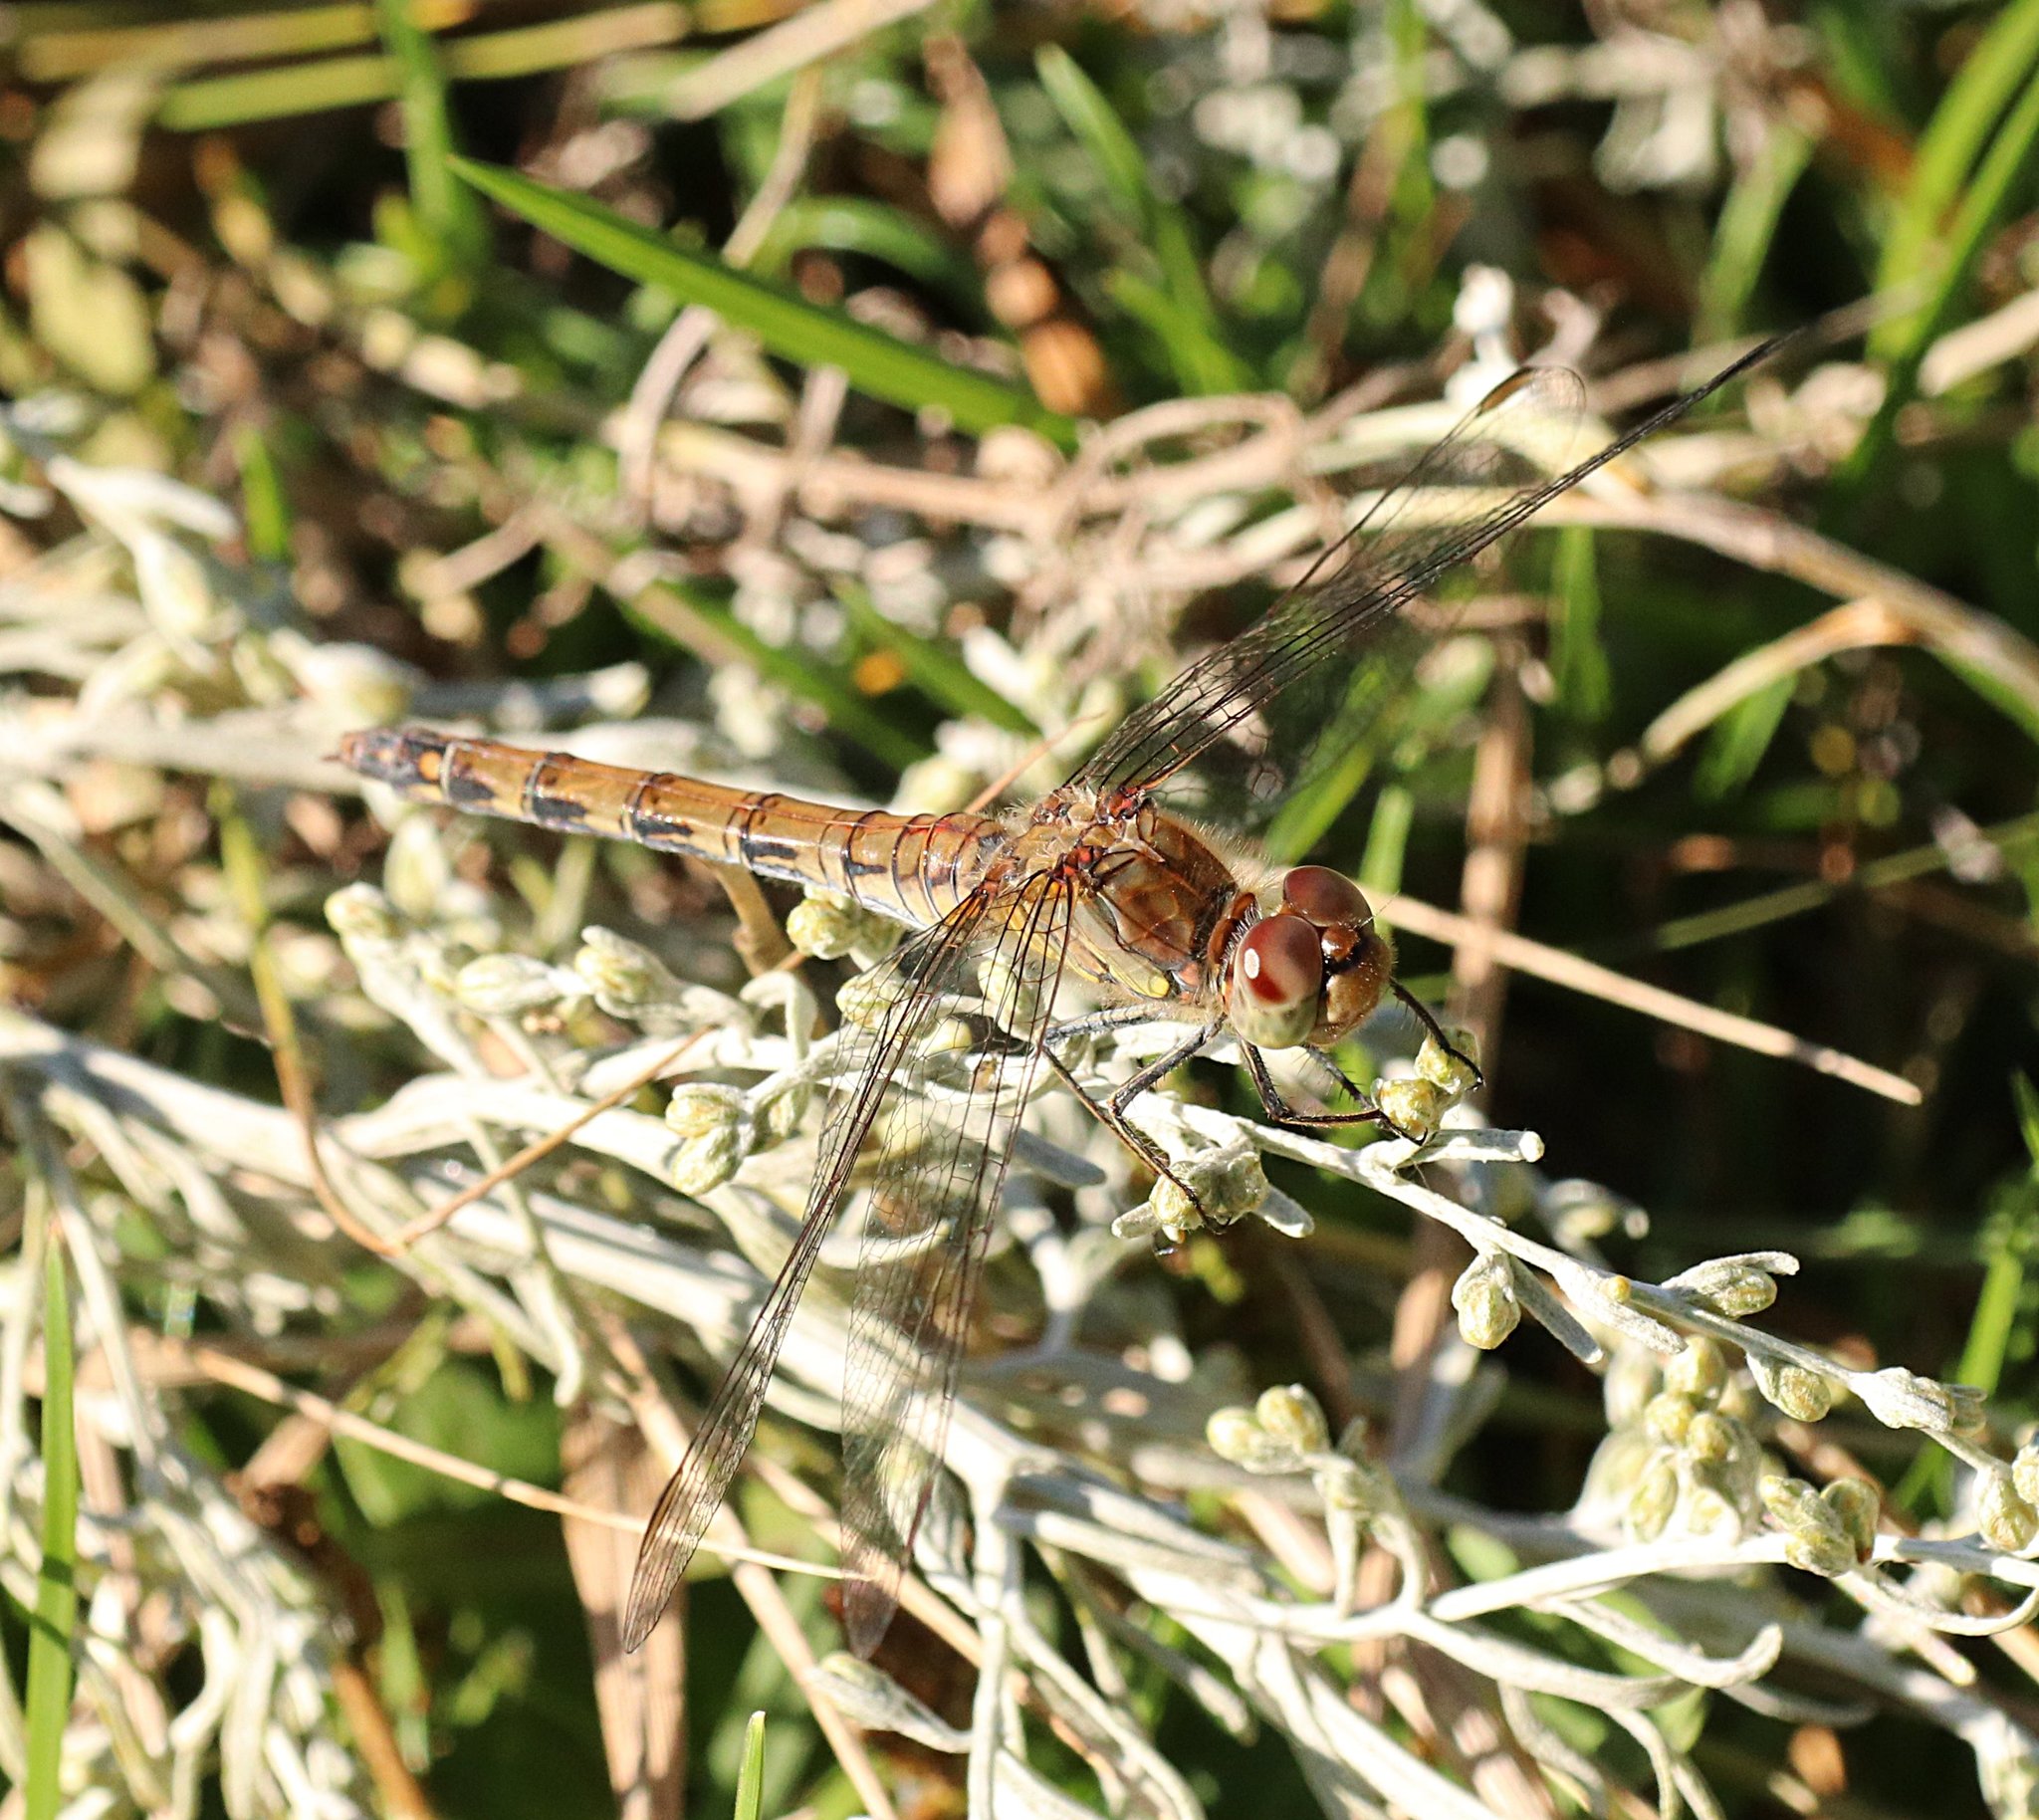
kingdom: Animalia
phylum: Arthropoda
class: Insecta
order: Odonata
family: Libellulidae
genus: Sympetrum
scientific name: Sympetrum striolatum
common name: Common darter
